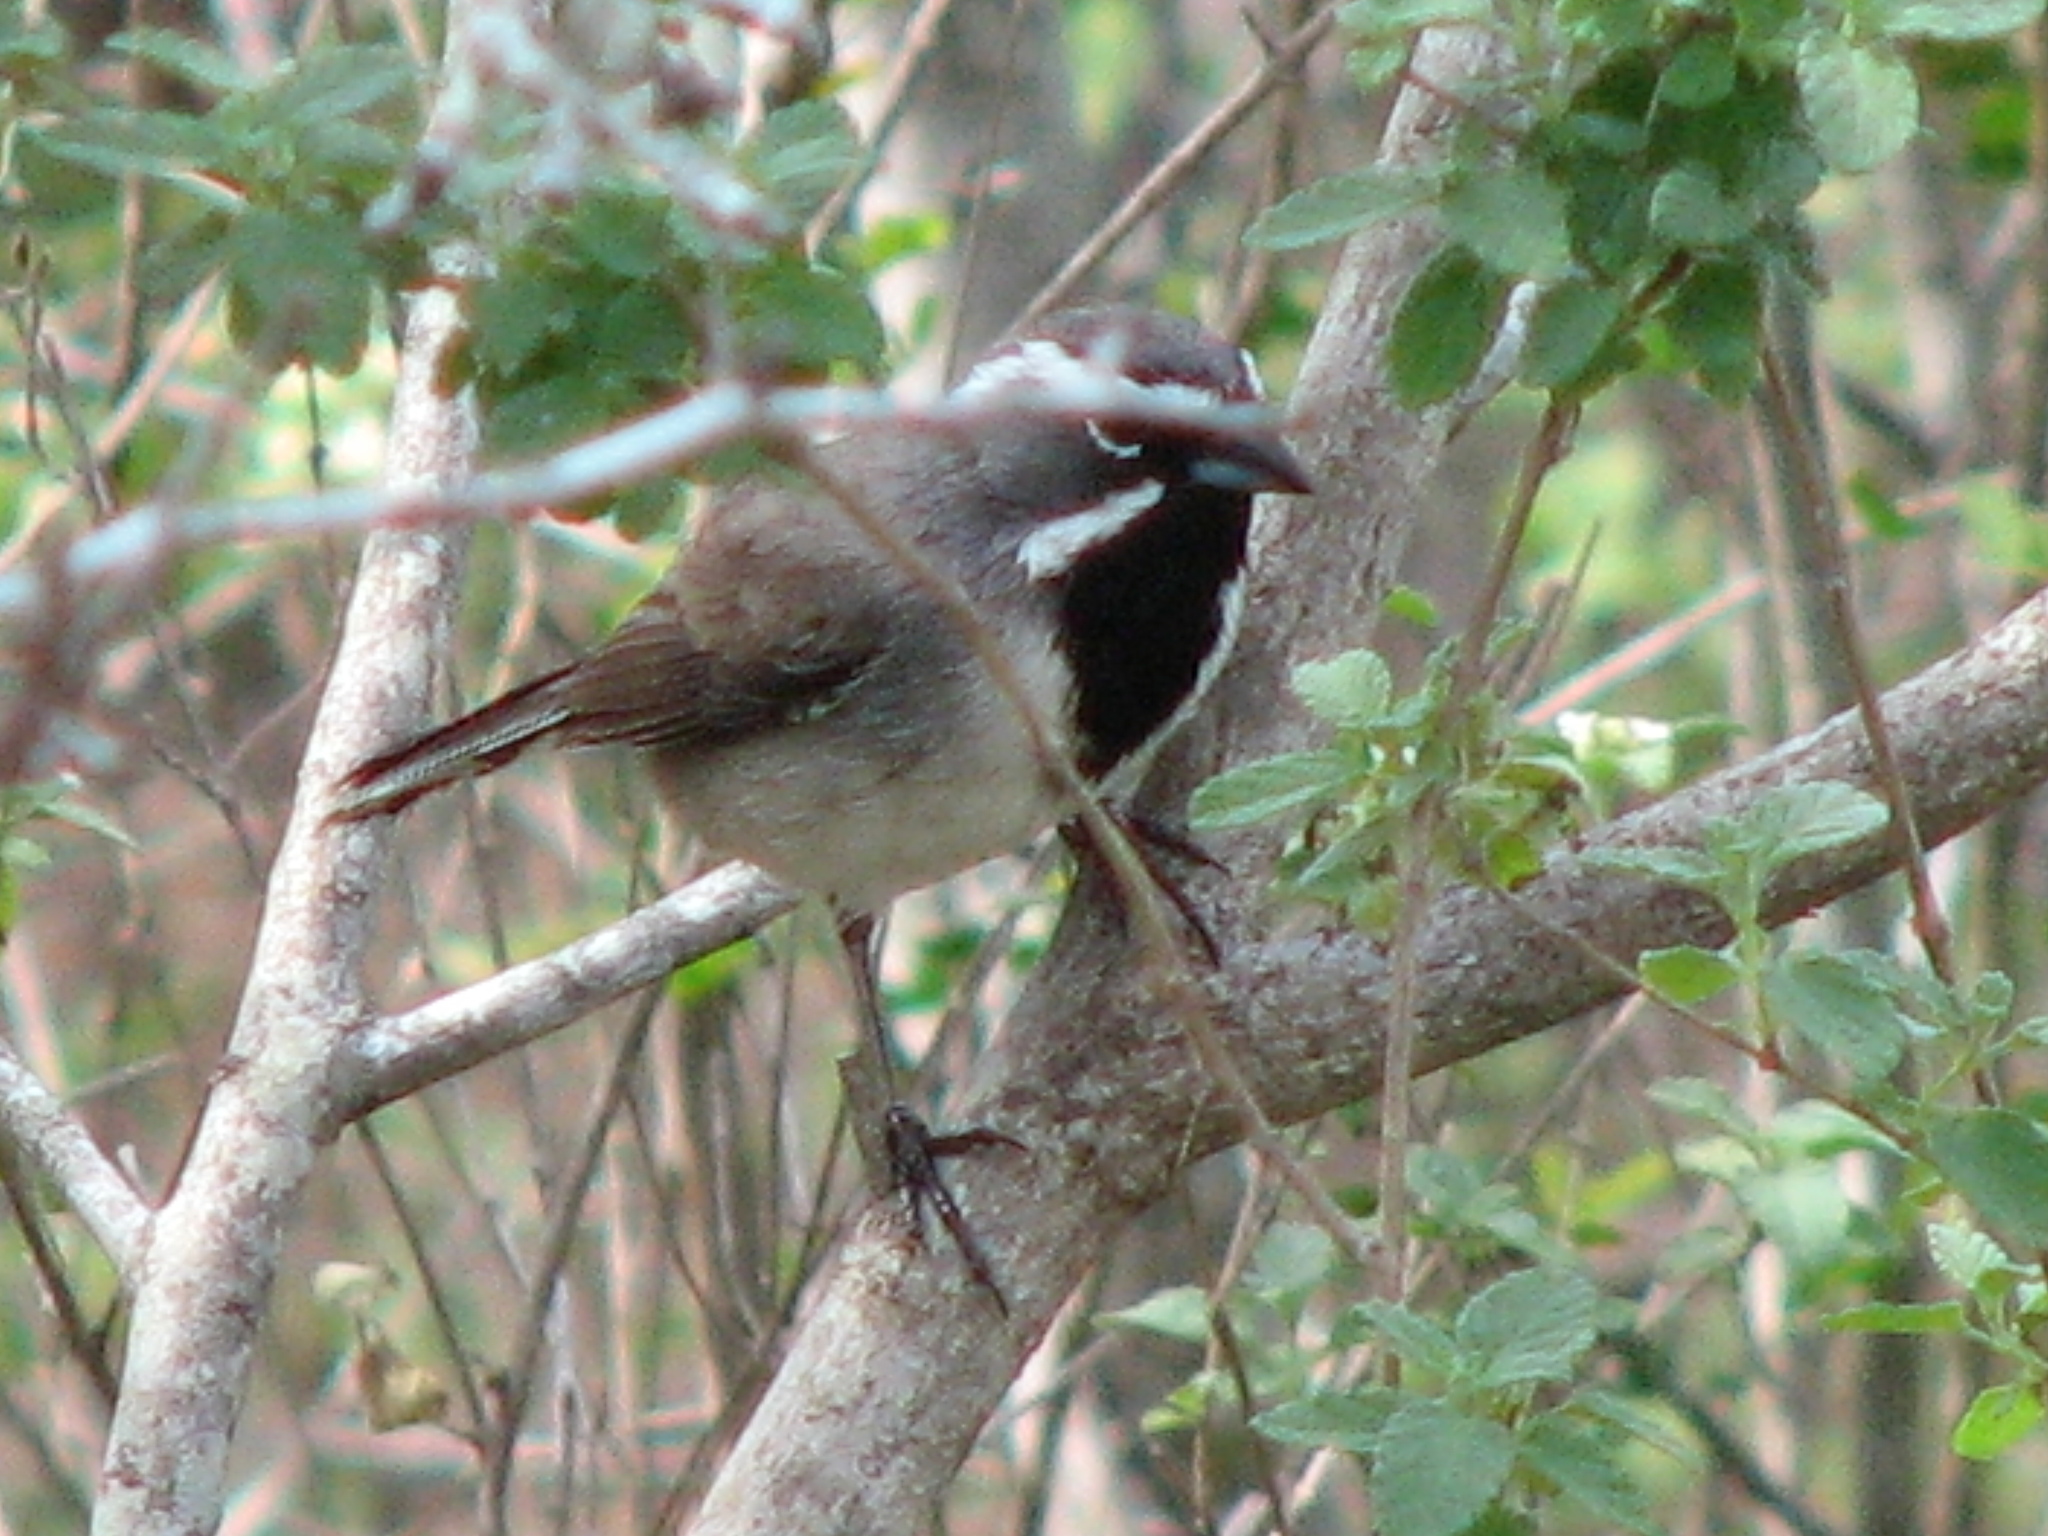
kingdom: Animalia
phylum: Chordata
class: Aves
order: Passeriformes
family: Passerellidae
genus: Amphispiza
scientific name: Amphispiza bilineata
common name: Black-throated sparrow
